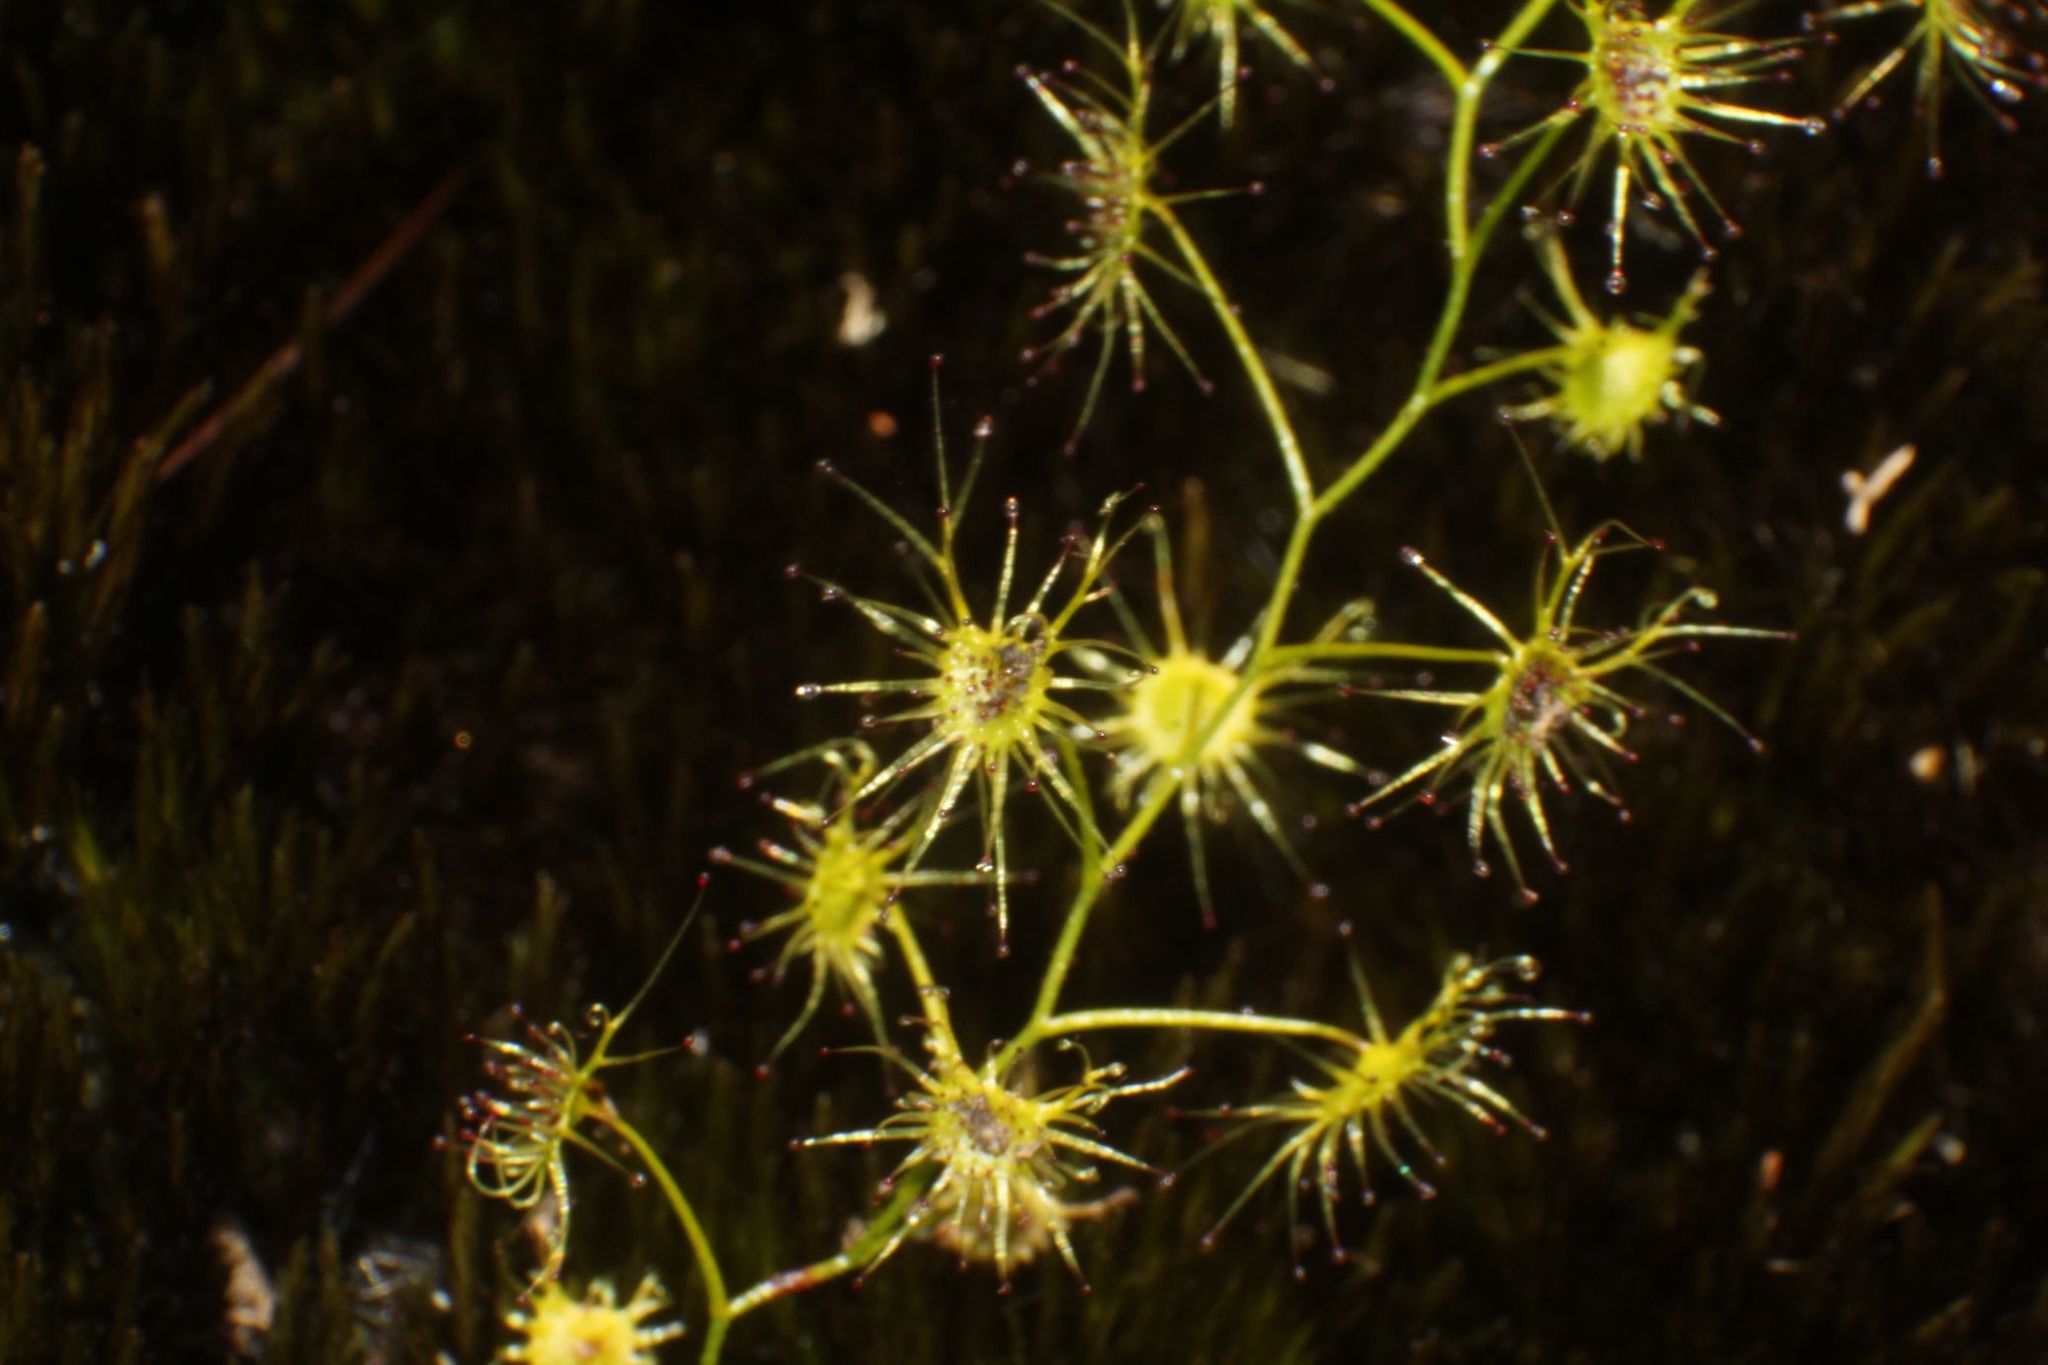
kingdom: Plantae
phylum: Tracheophyta
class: Magnoliopsida
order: Caryophyllales
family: Droseraceae
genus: Drosera
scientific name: Drosera modesta
